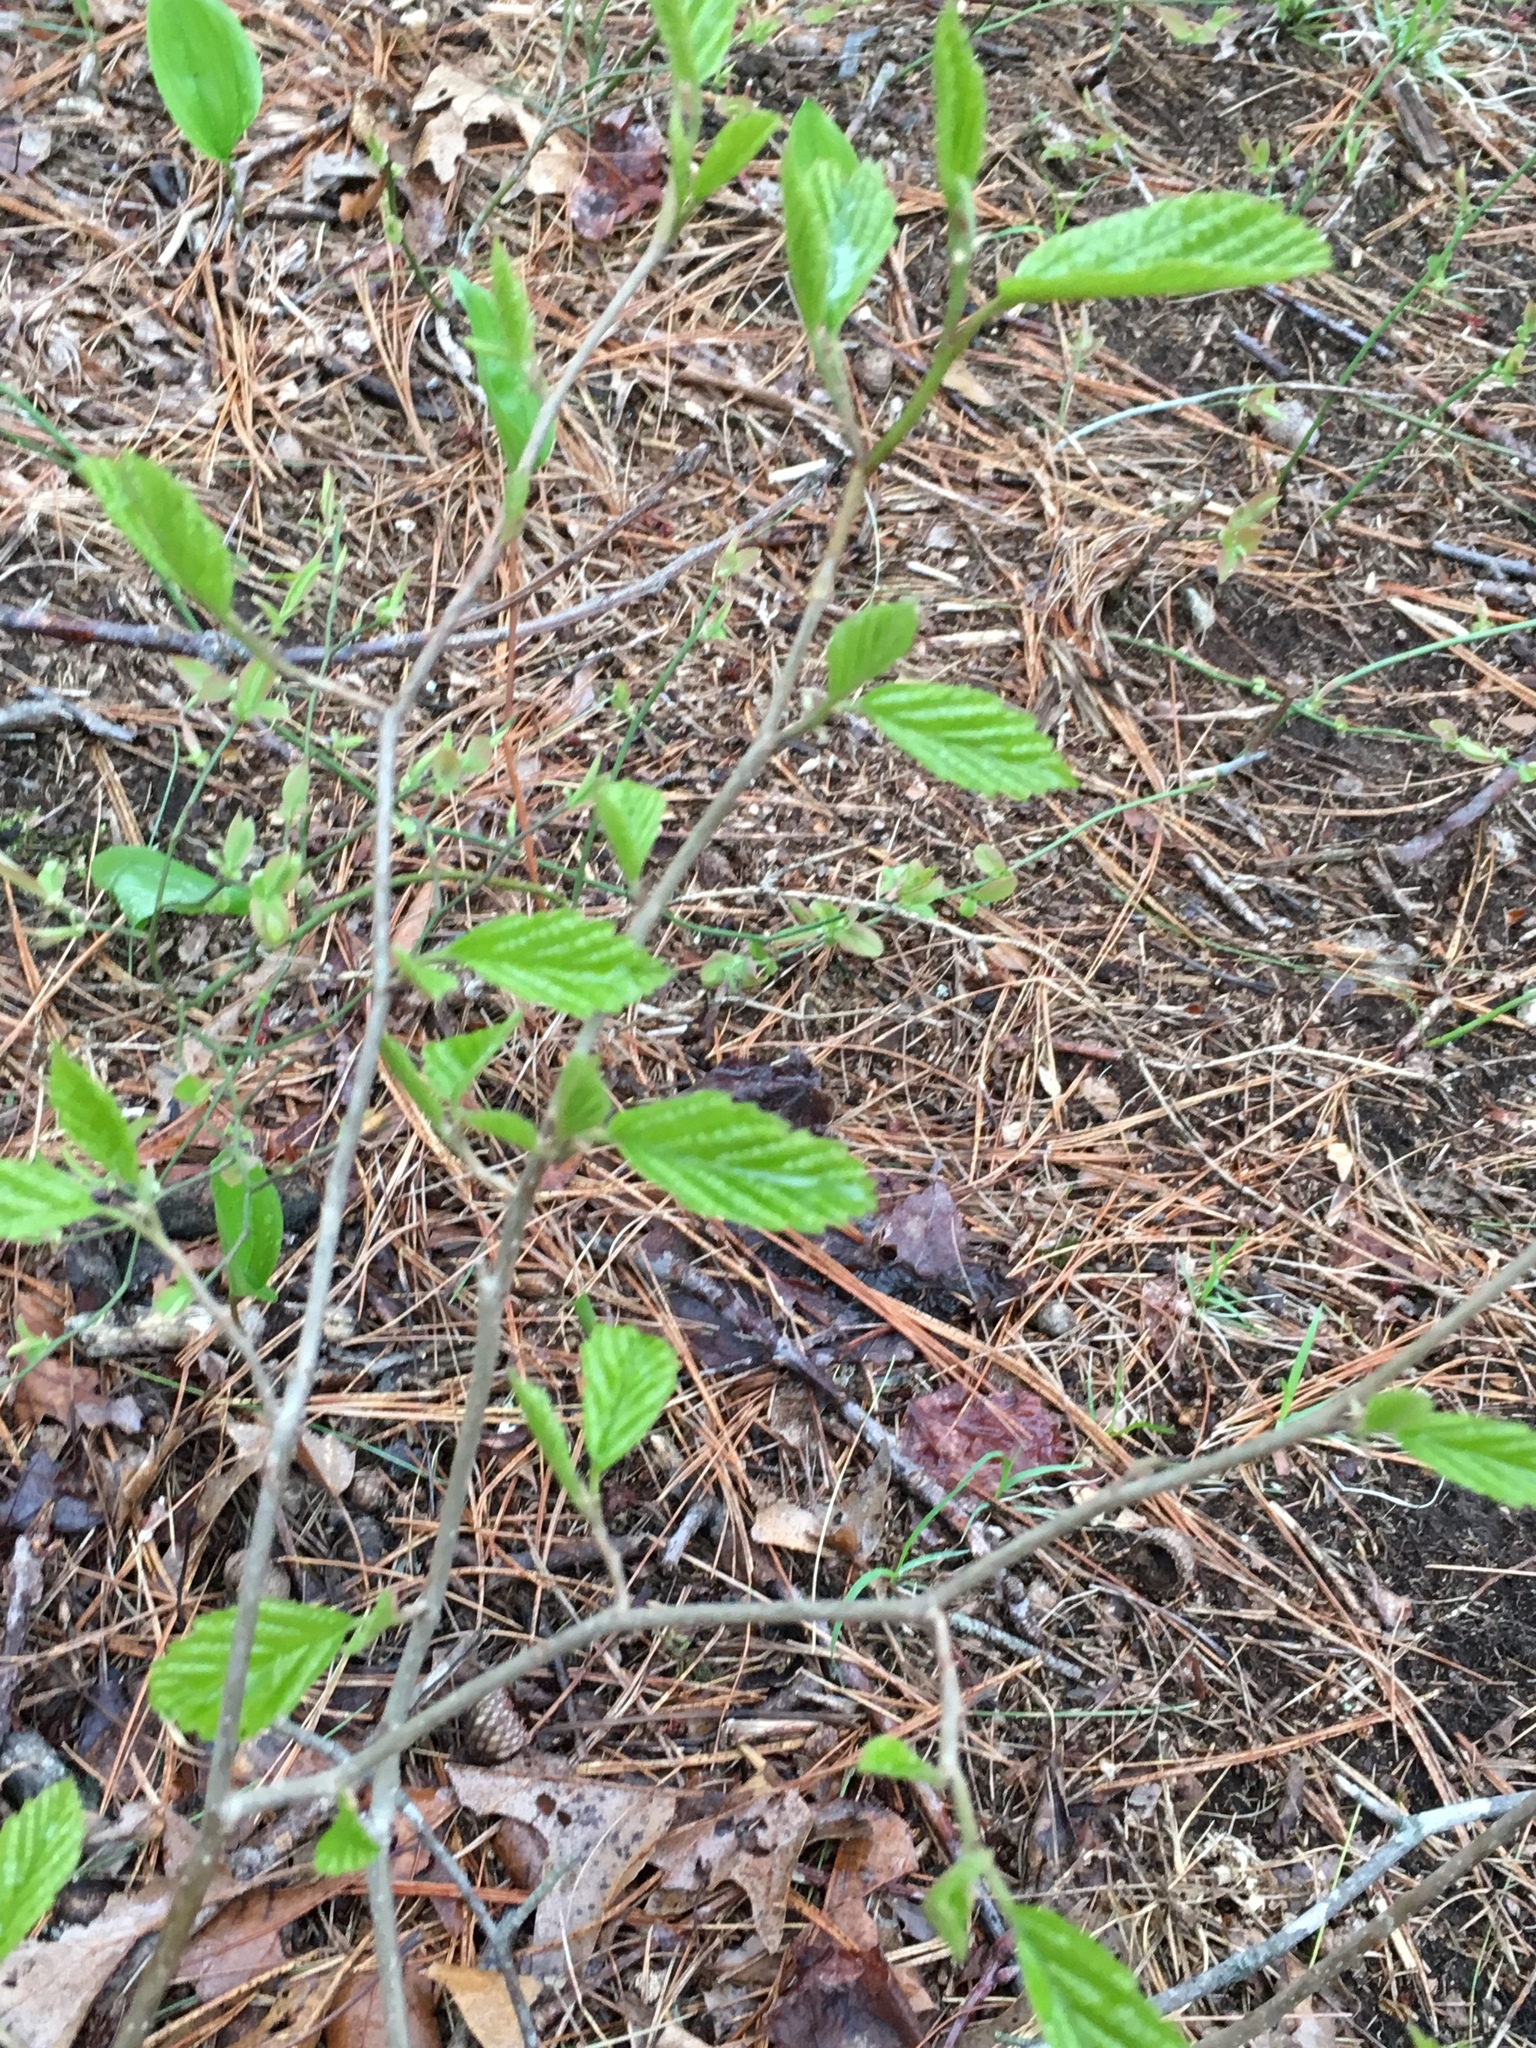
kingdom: Plantae
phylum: Tracheophyta
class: Magnoliopsida
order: Saxifragales
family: Hamamelidaceae
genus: Hamamelis
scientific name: Hamamelis virginiana
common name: Witch-hazel
